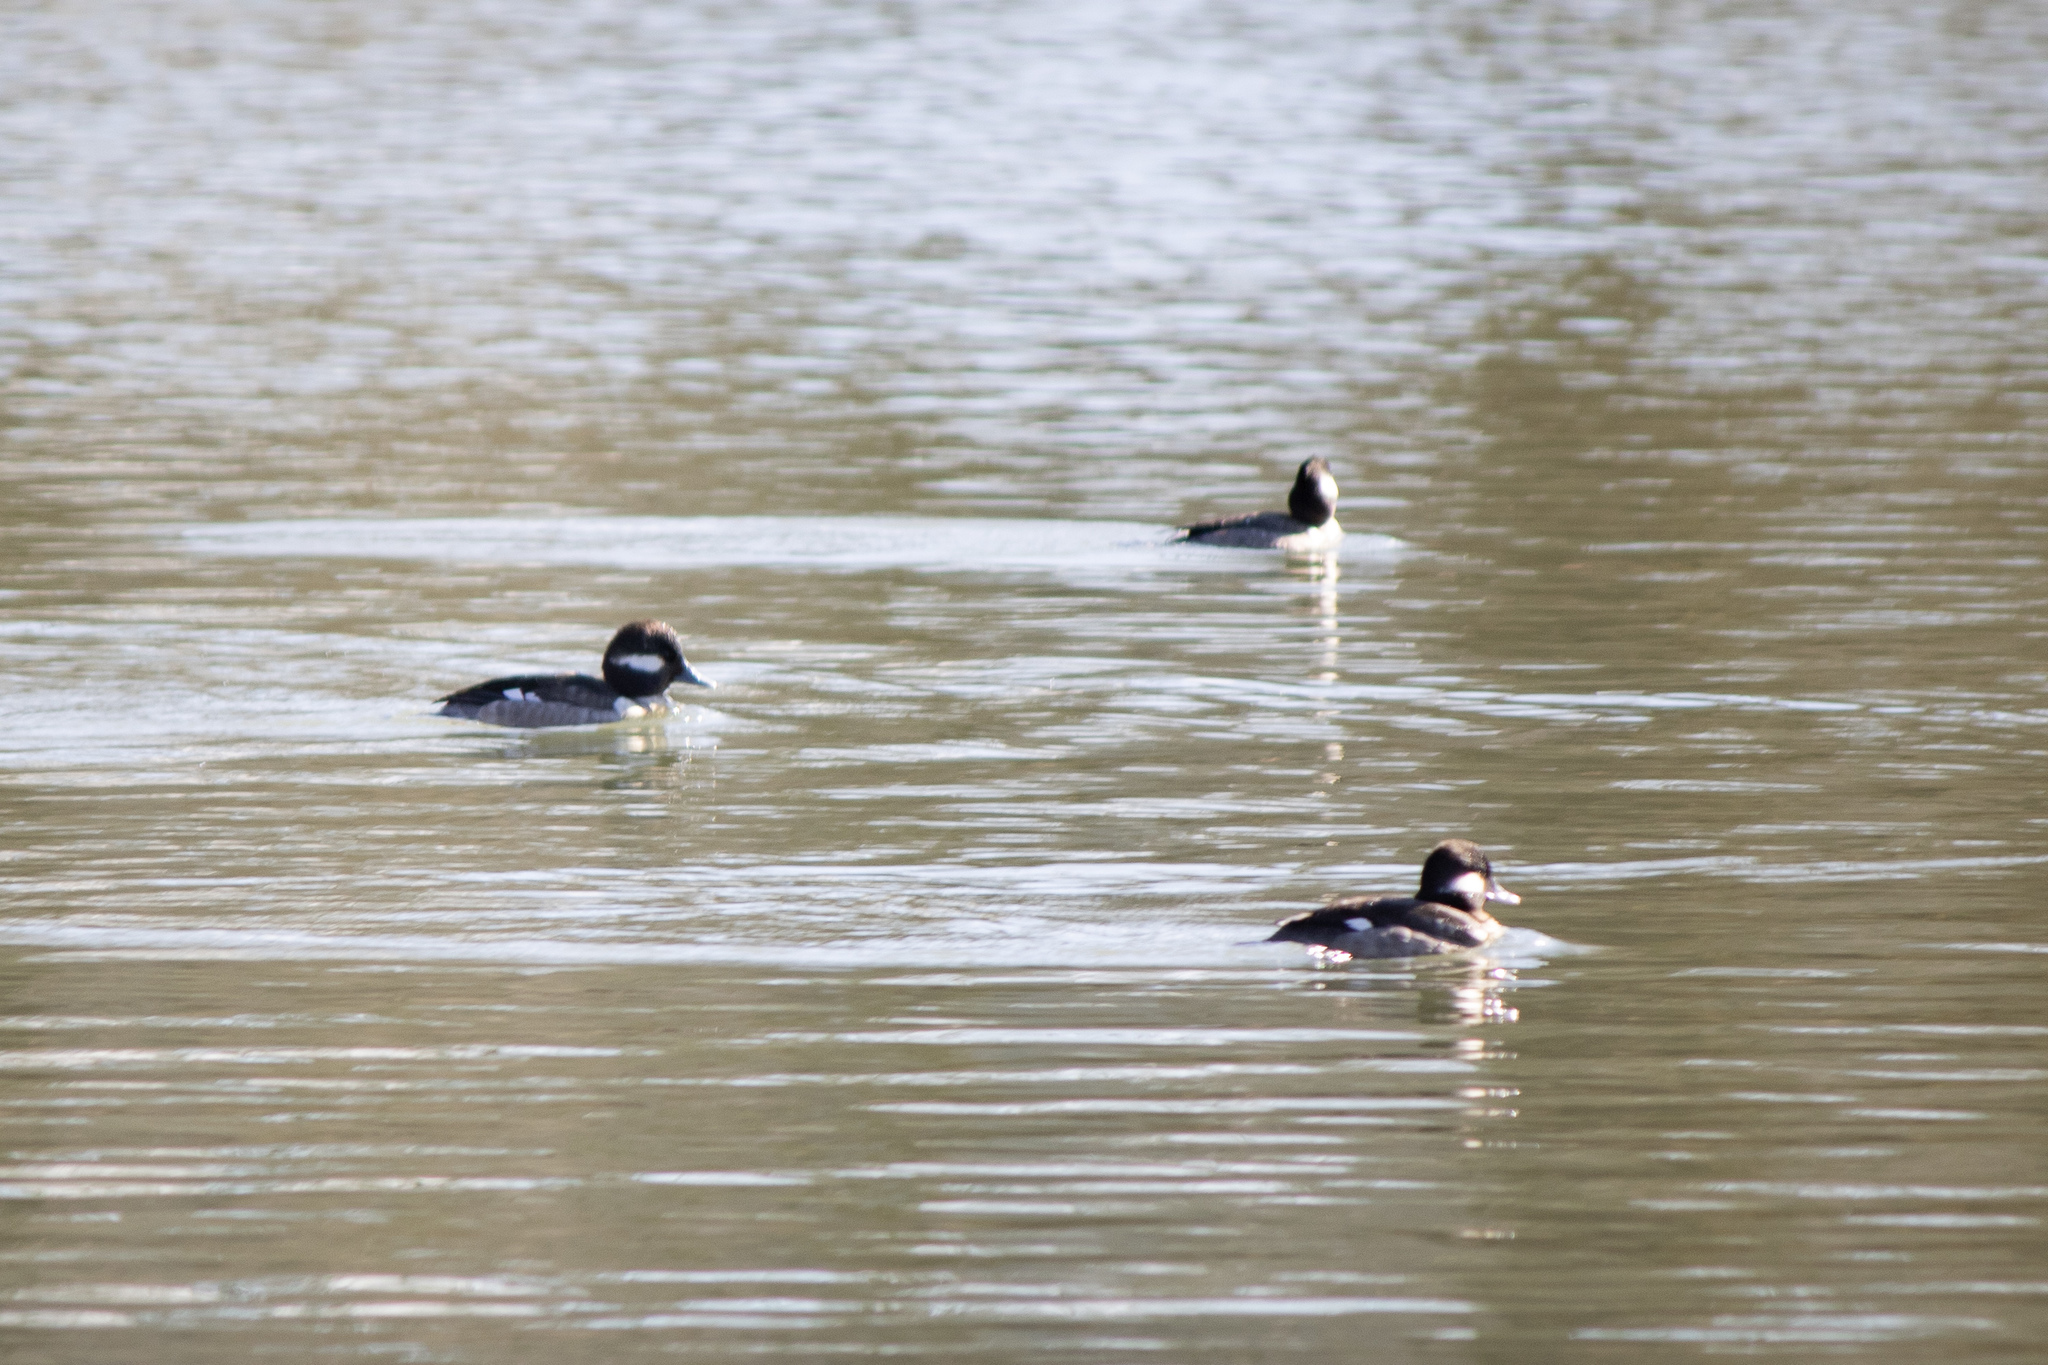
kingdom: Animalia
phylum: Chordata
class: Aves
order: Anseriformes
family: Anatidae
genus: Bucephala
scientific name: Bucephala albeola
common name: Bufflehead
